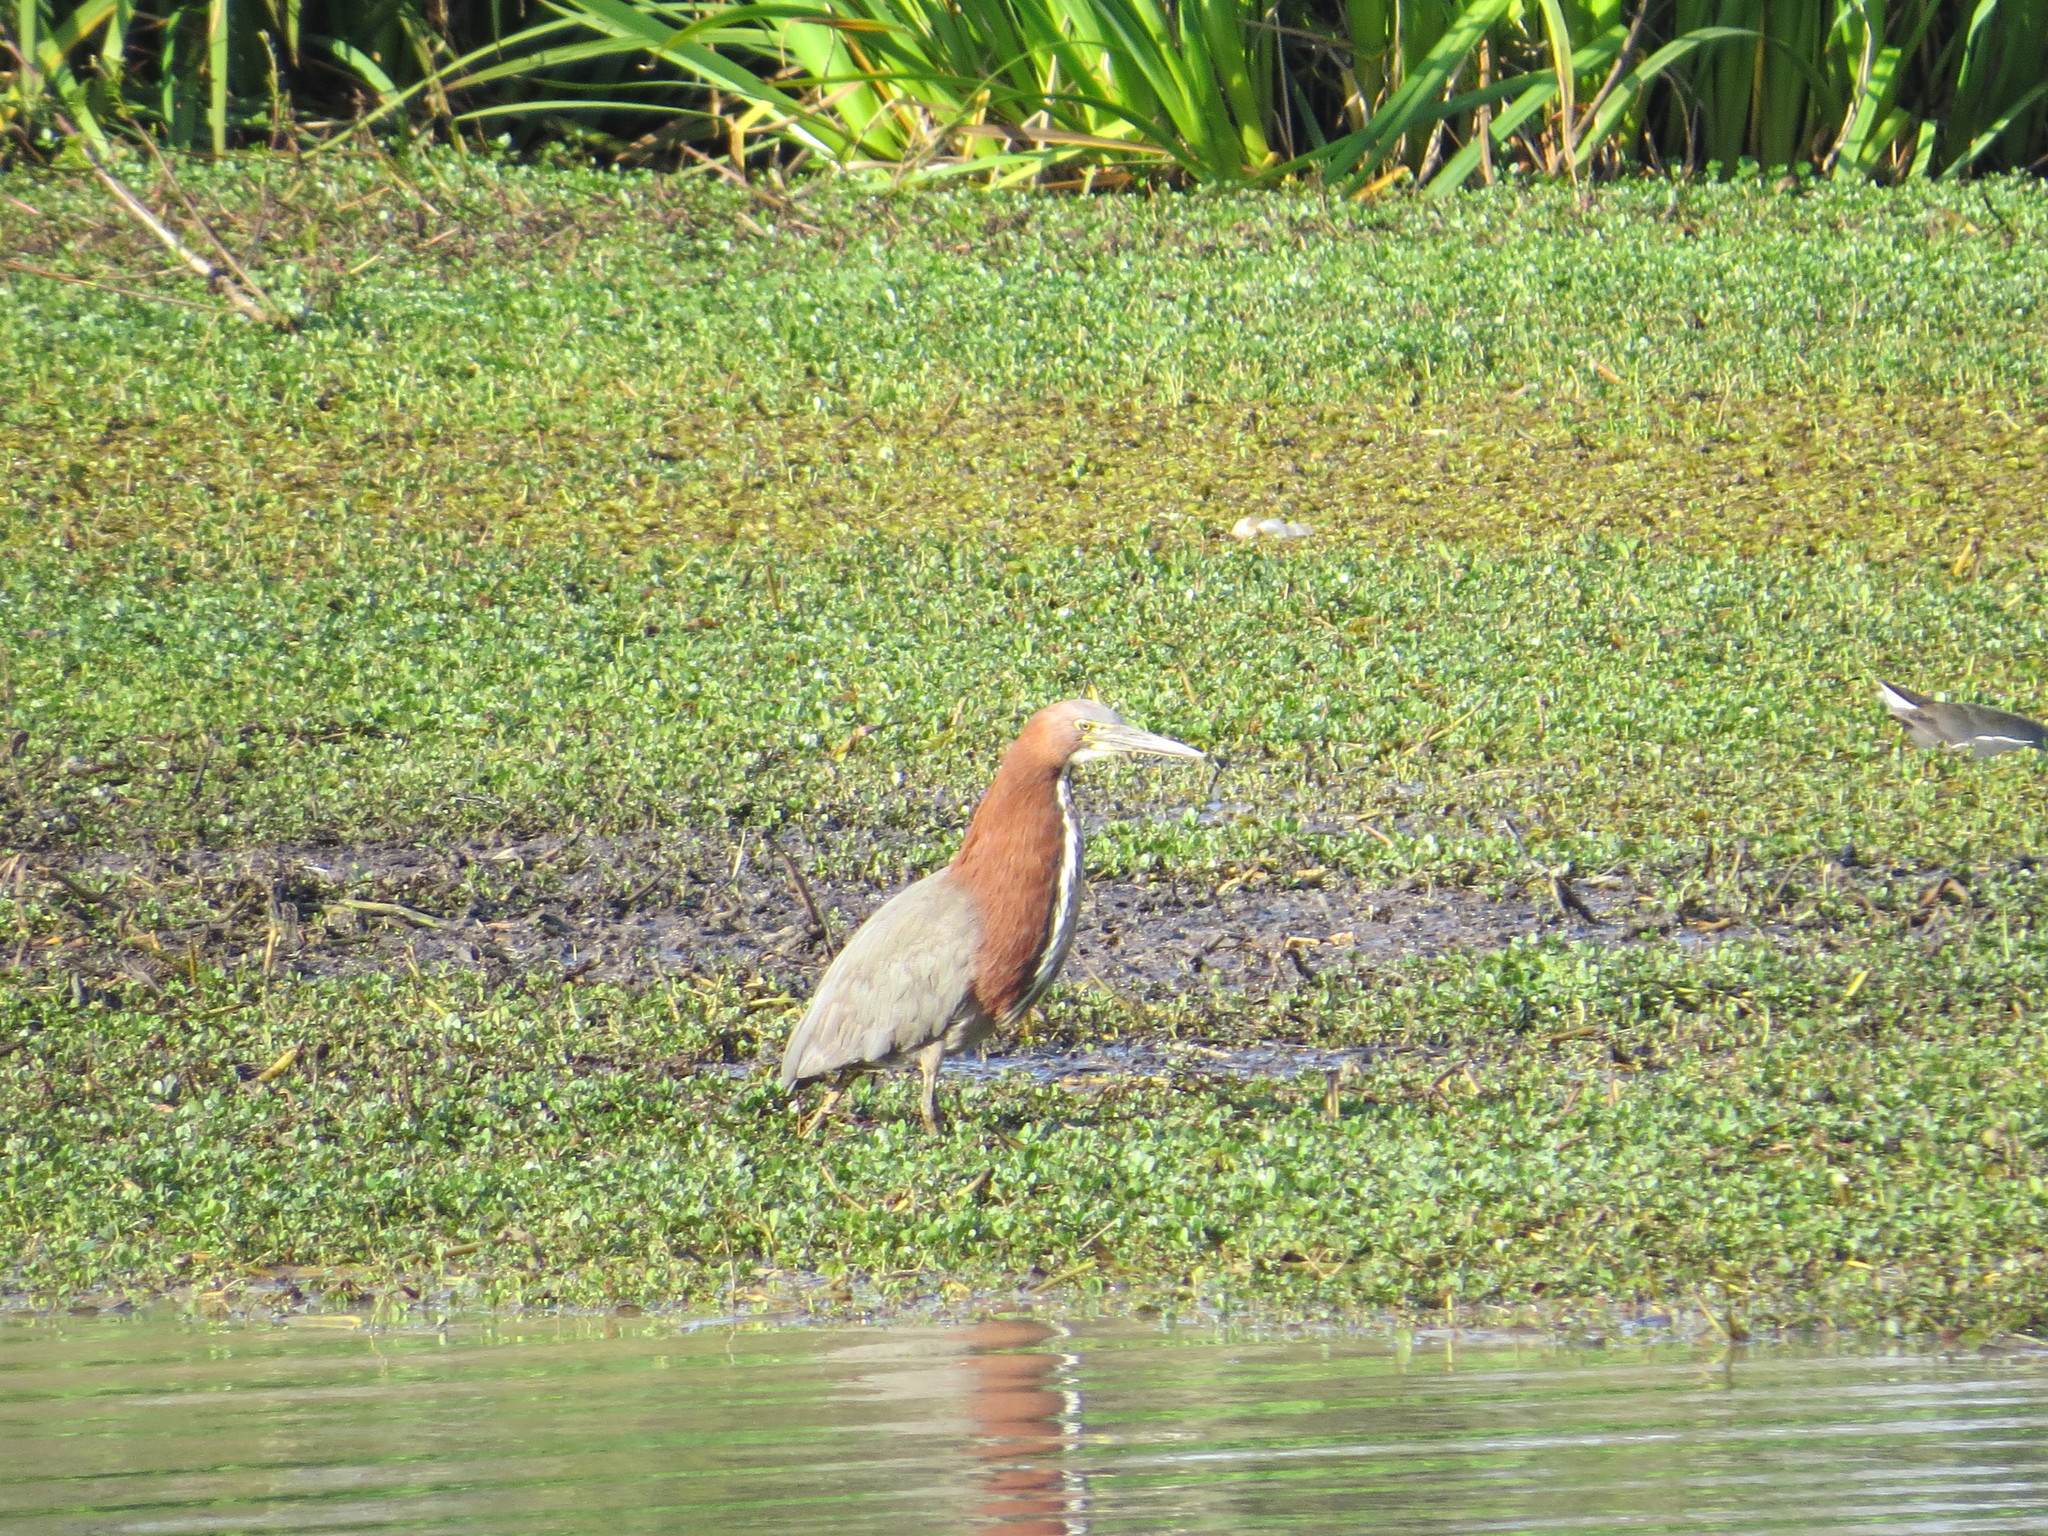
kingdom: Animalia
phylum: Chordata
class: Aves
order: Pelecaniformes
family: Ardeidae
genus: Tigrisoma
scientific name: Tigrisoma lineatum
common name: Rufescent tiger-heron
